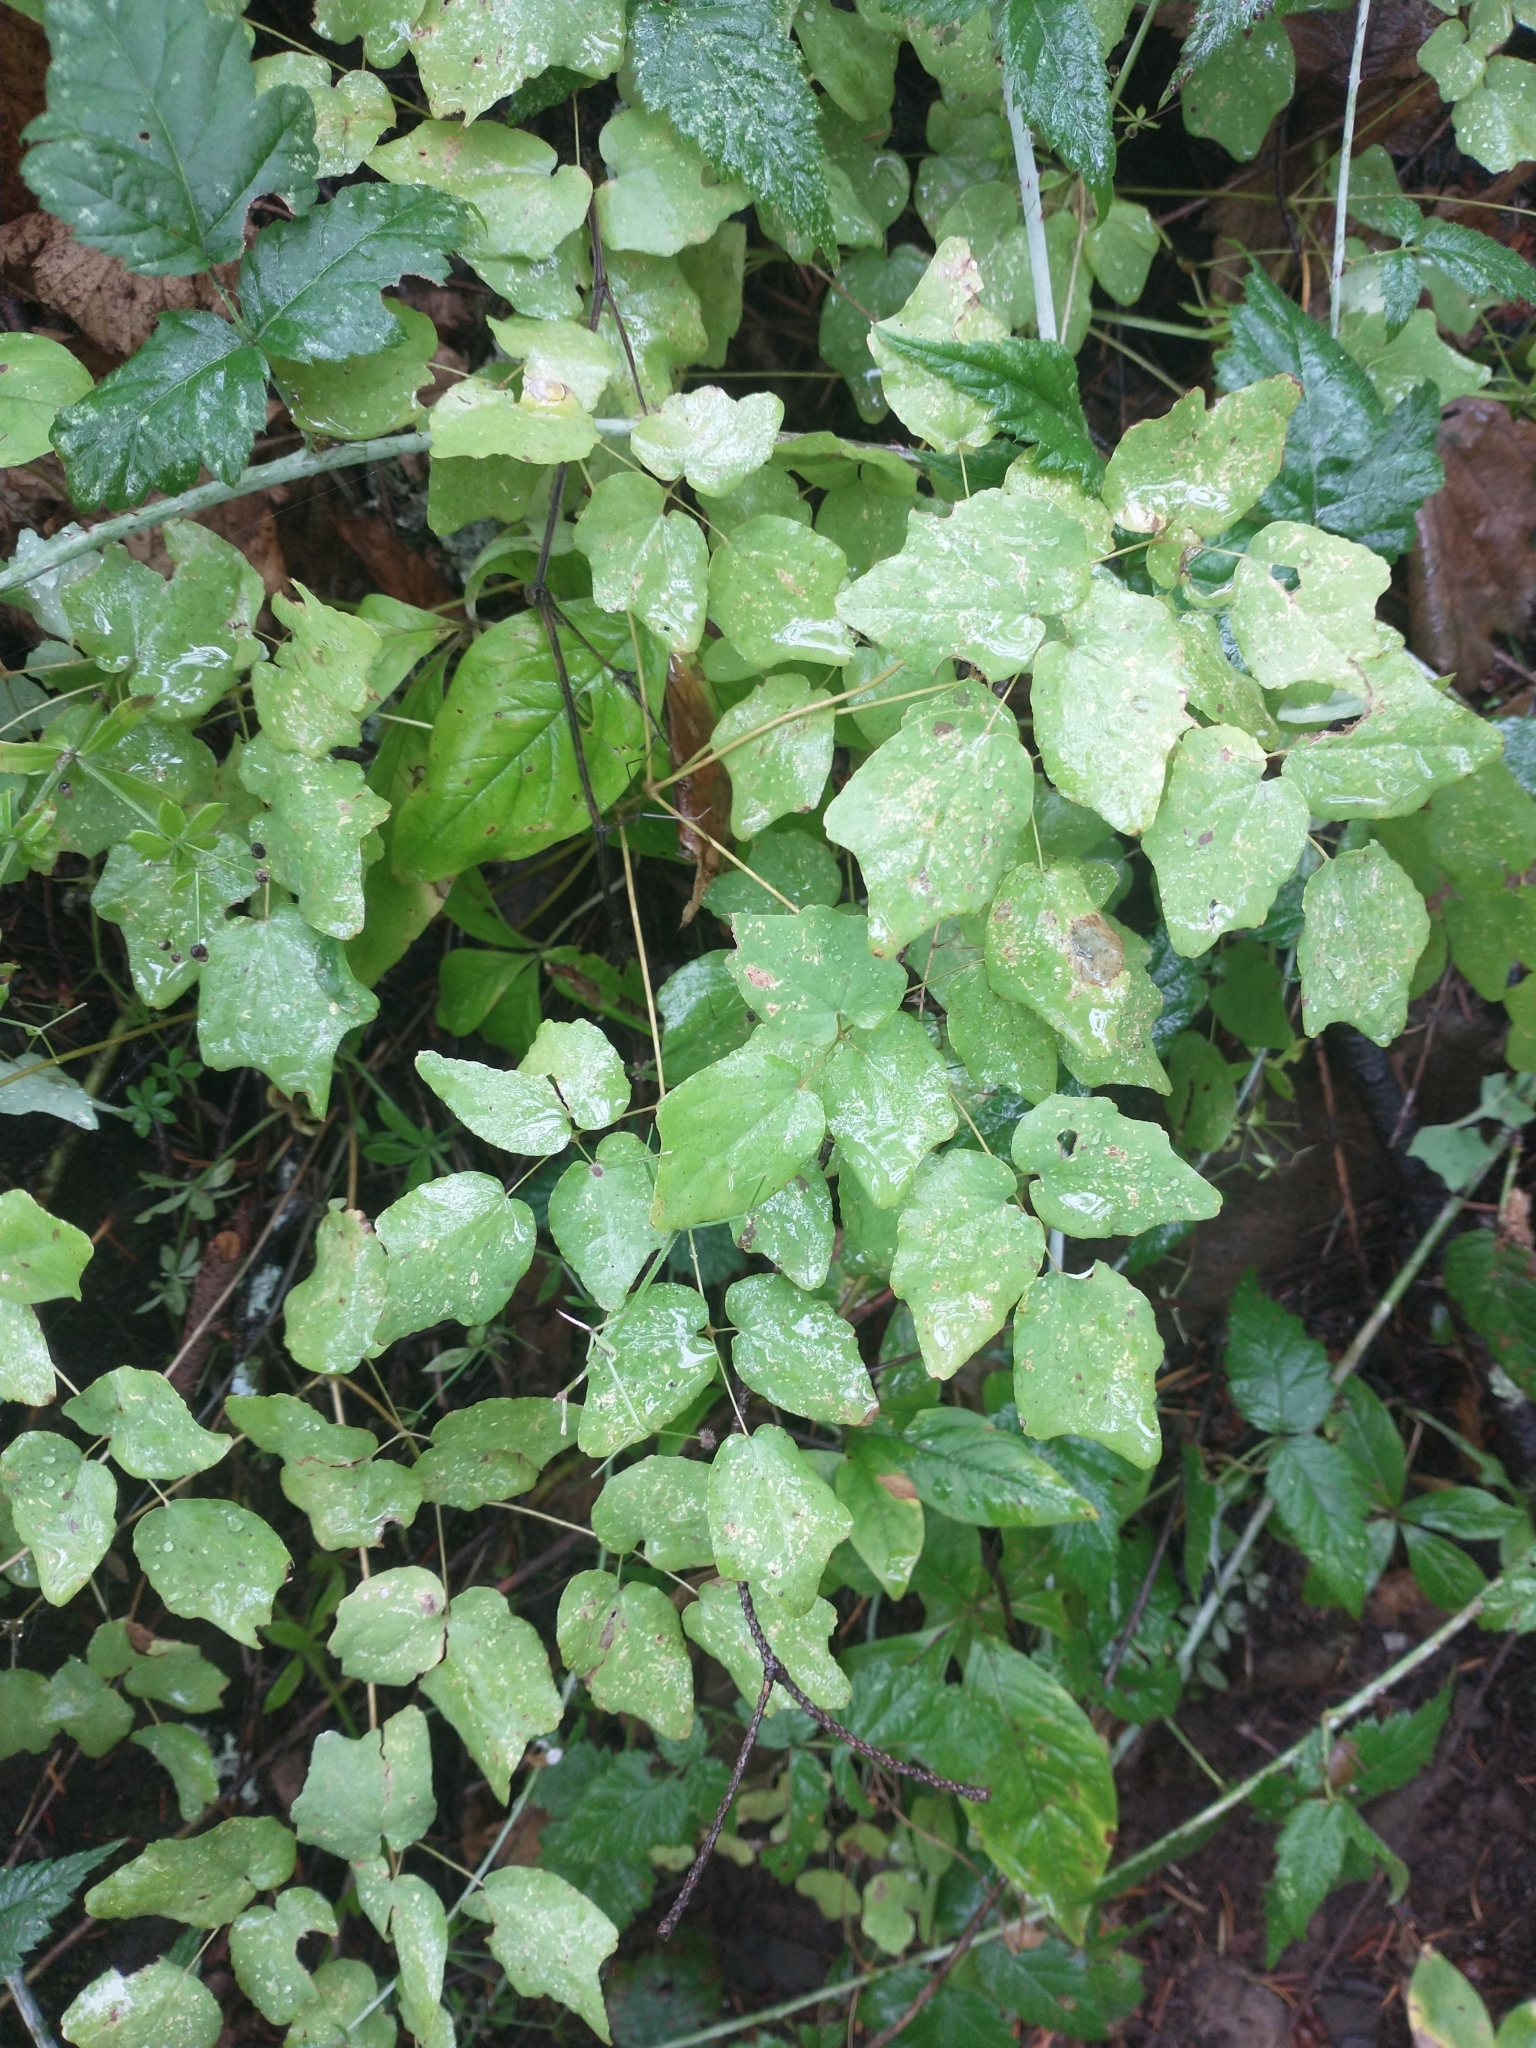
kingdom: Plantae
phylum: Tracheophyta
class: Magnoliopsida
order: Ranunculales
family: Berberidaceae
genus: Vancouveria
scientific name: Vancouveria hexandra
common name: Northern inside-out-flower
